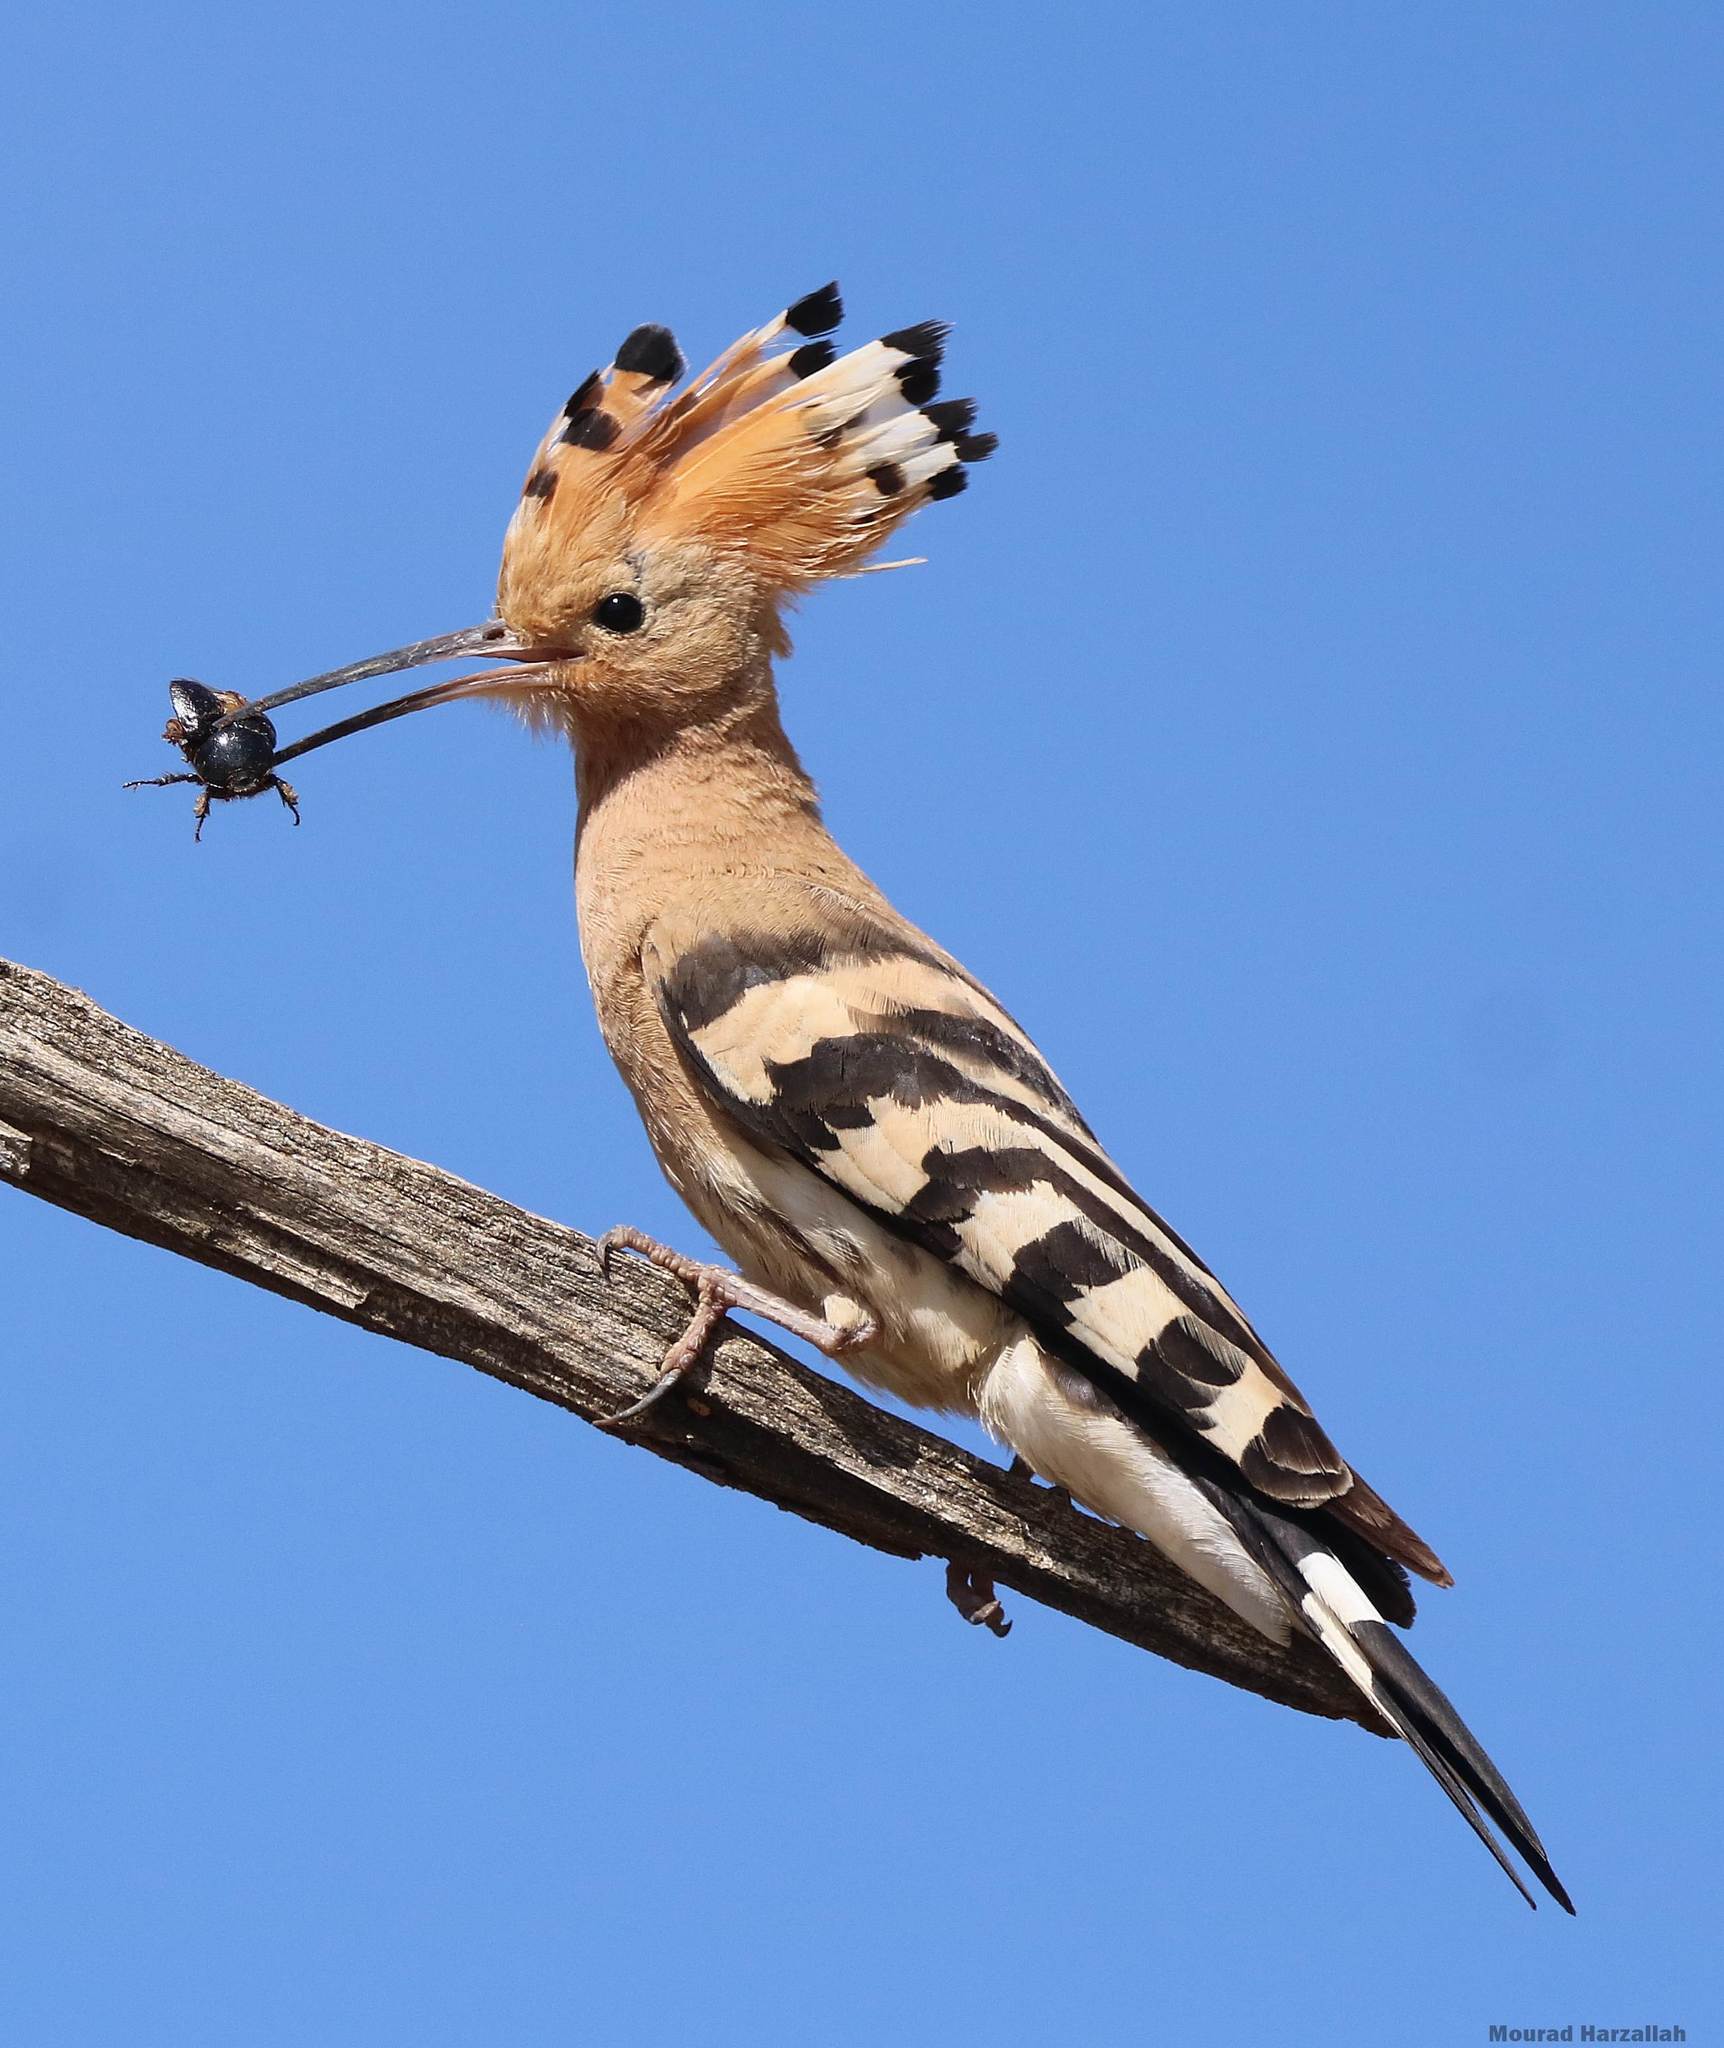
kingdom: Animalia
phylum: Chordata
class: Aves
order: Bucerotiformes
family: Upupidae
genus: Upupa
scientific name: Upupa epops
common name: Eurasian hoopoe
